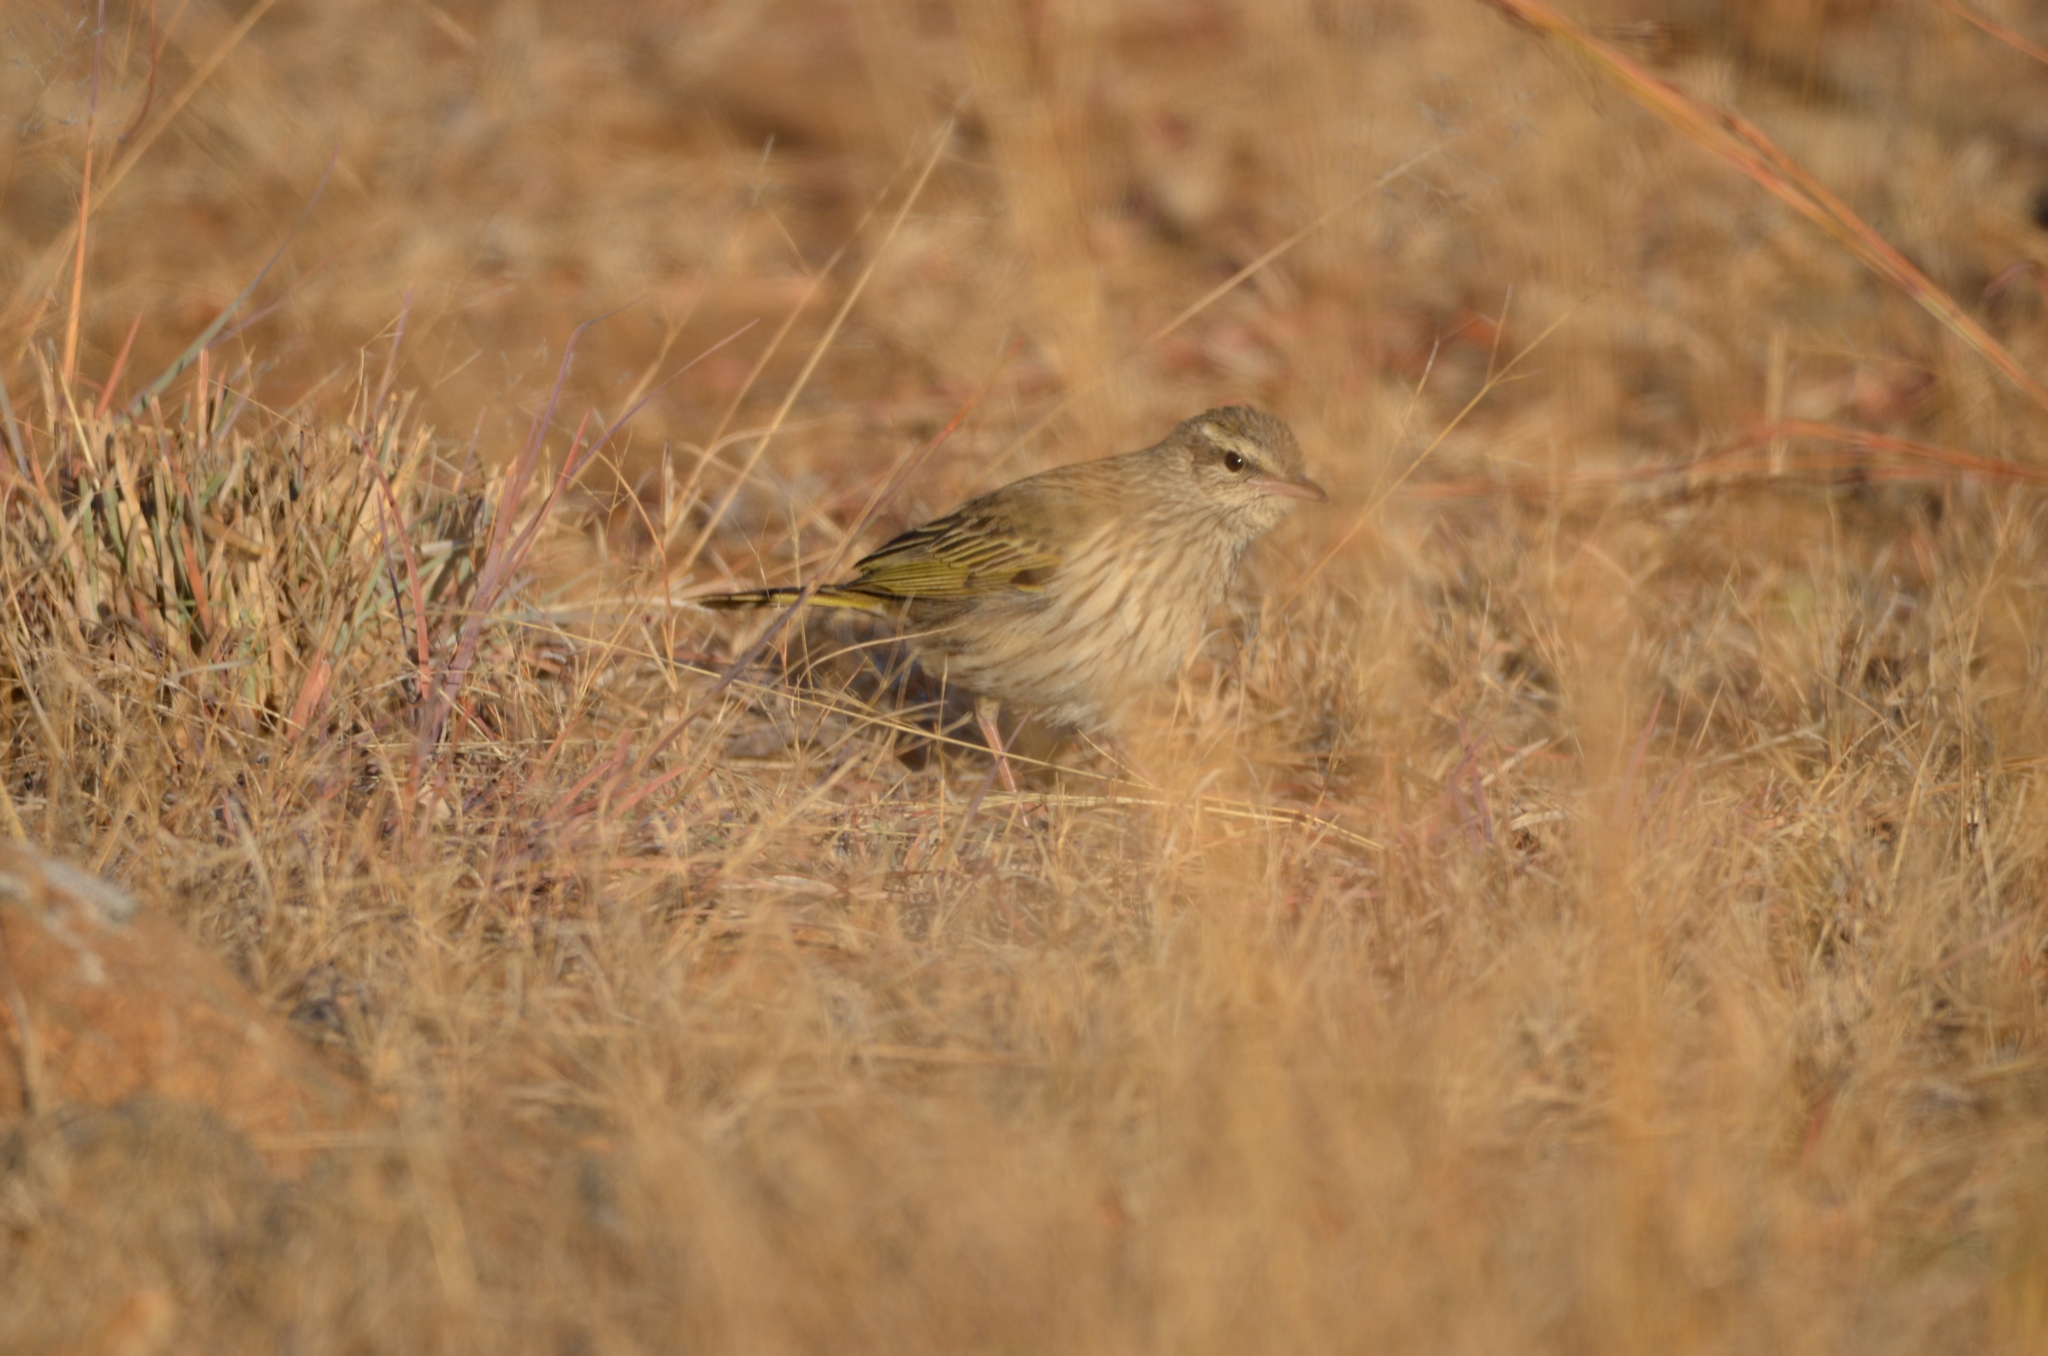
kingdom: Animalia
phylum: Chordata
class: Aves
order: Passeriformes
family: Motacillidae
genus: Anthus
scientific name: Anthus lineiventris
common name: Striped pipit
